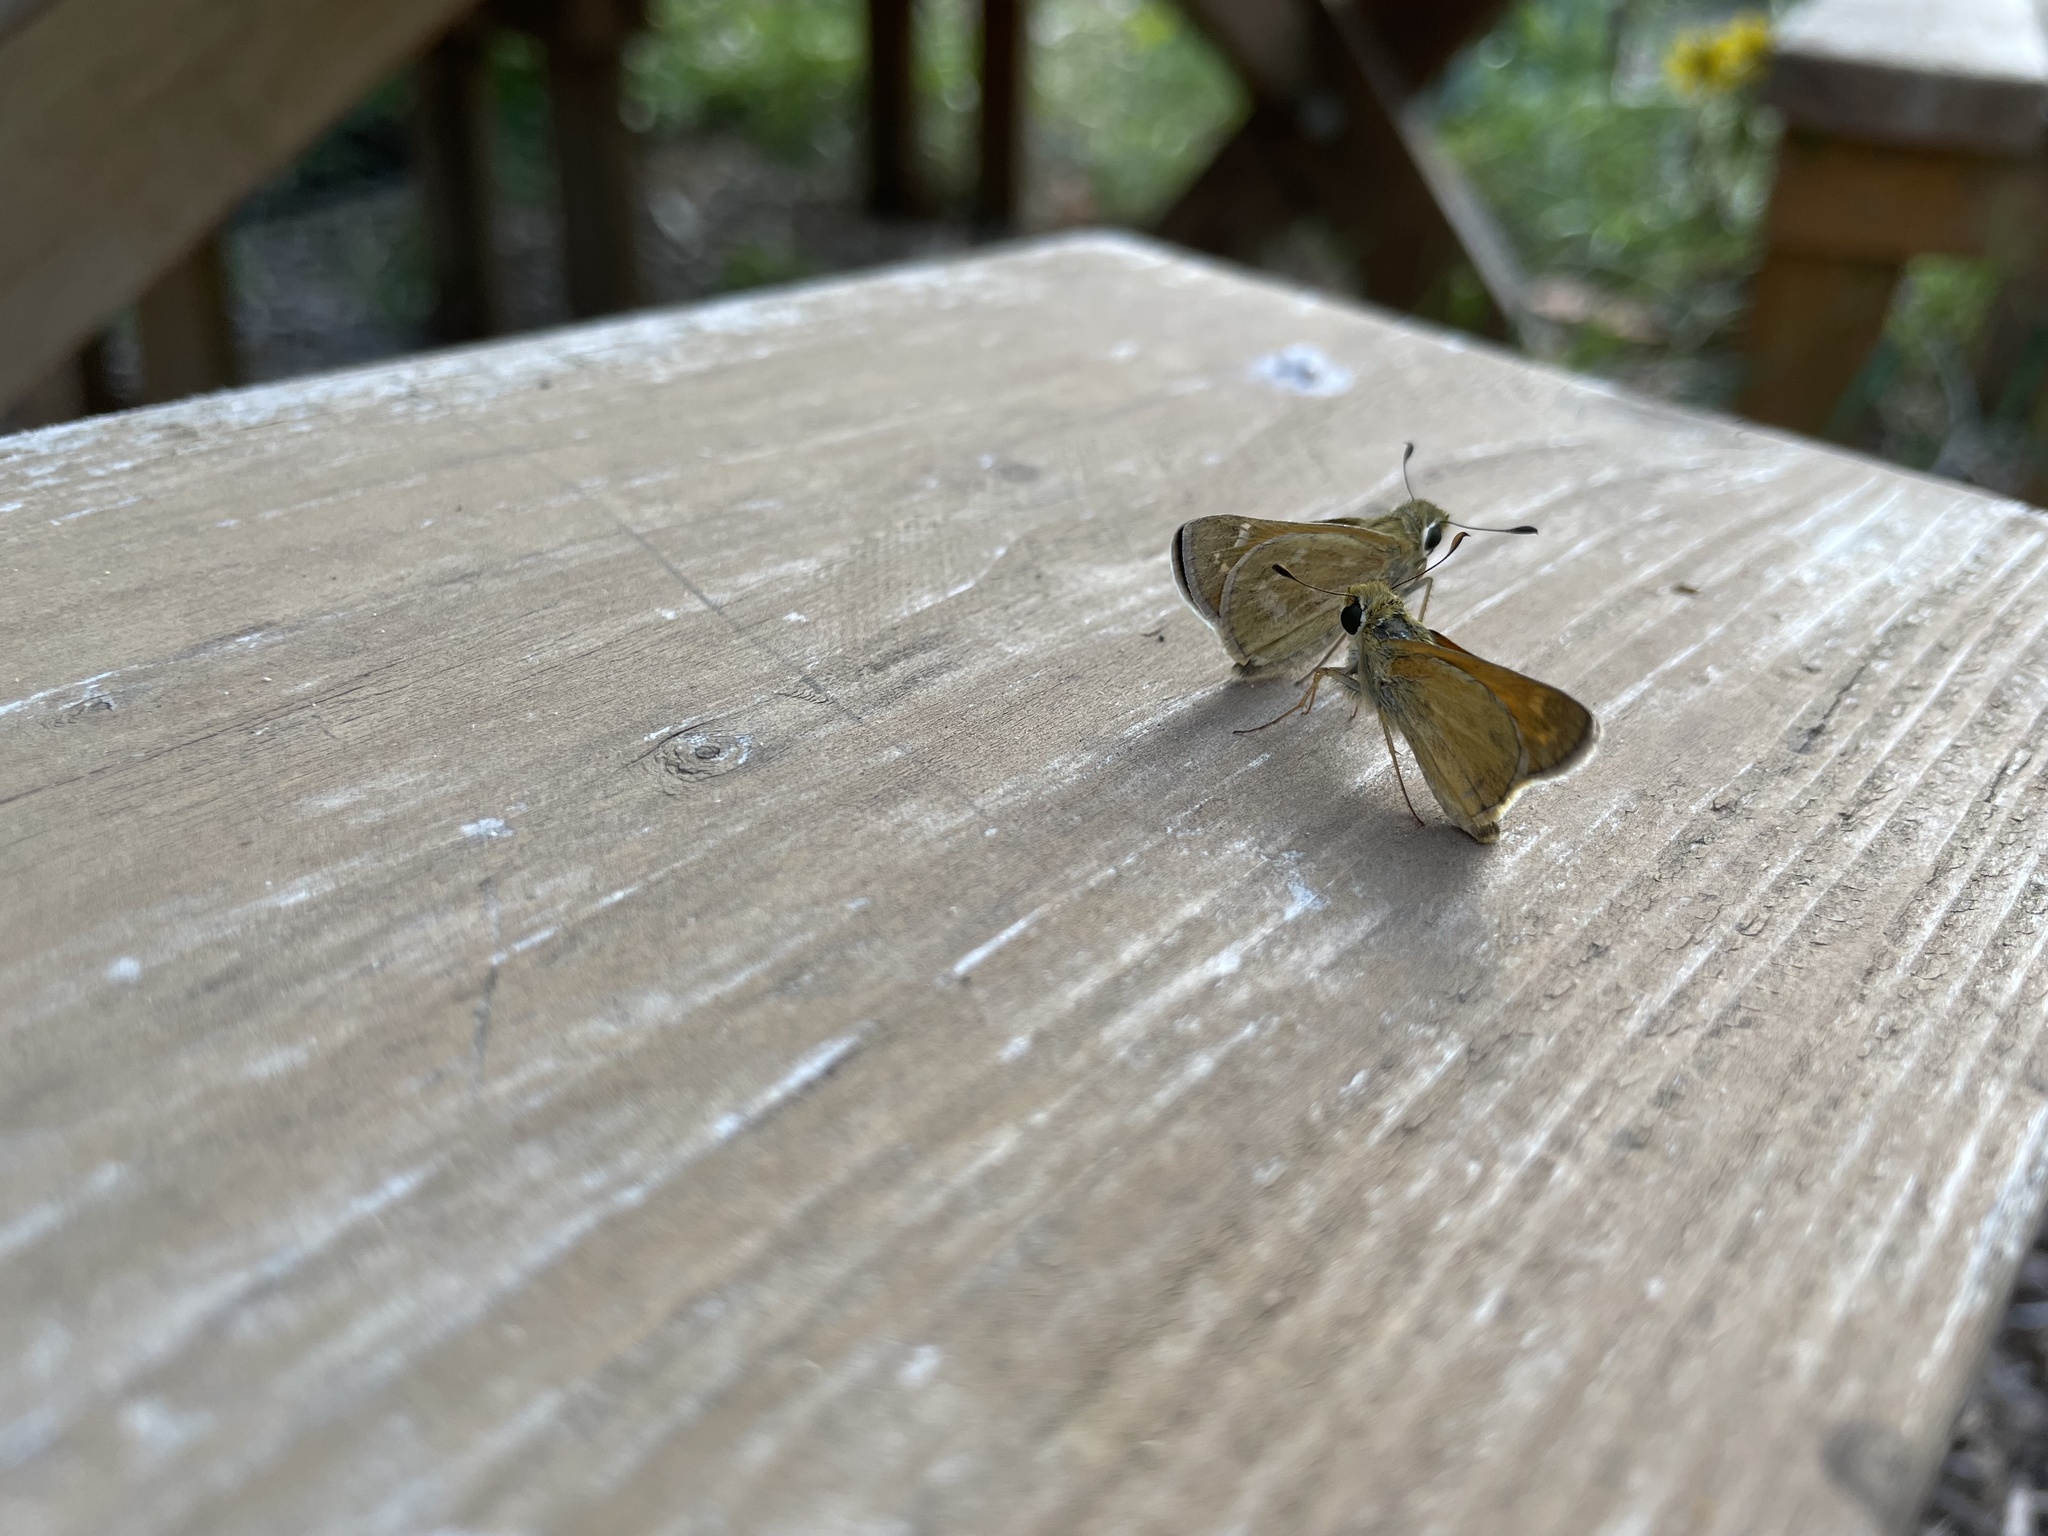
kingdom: Animalia
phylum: Arthropoda
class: Insecta
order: Lepidoptera
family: Hesperiidae
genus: Atalopedes
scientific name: Atalopedes
